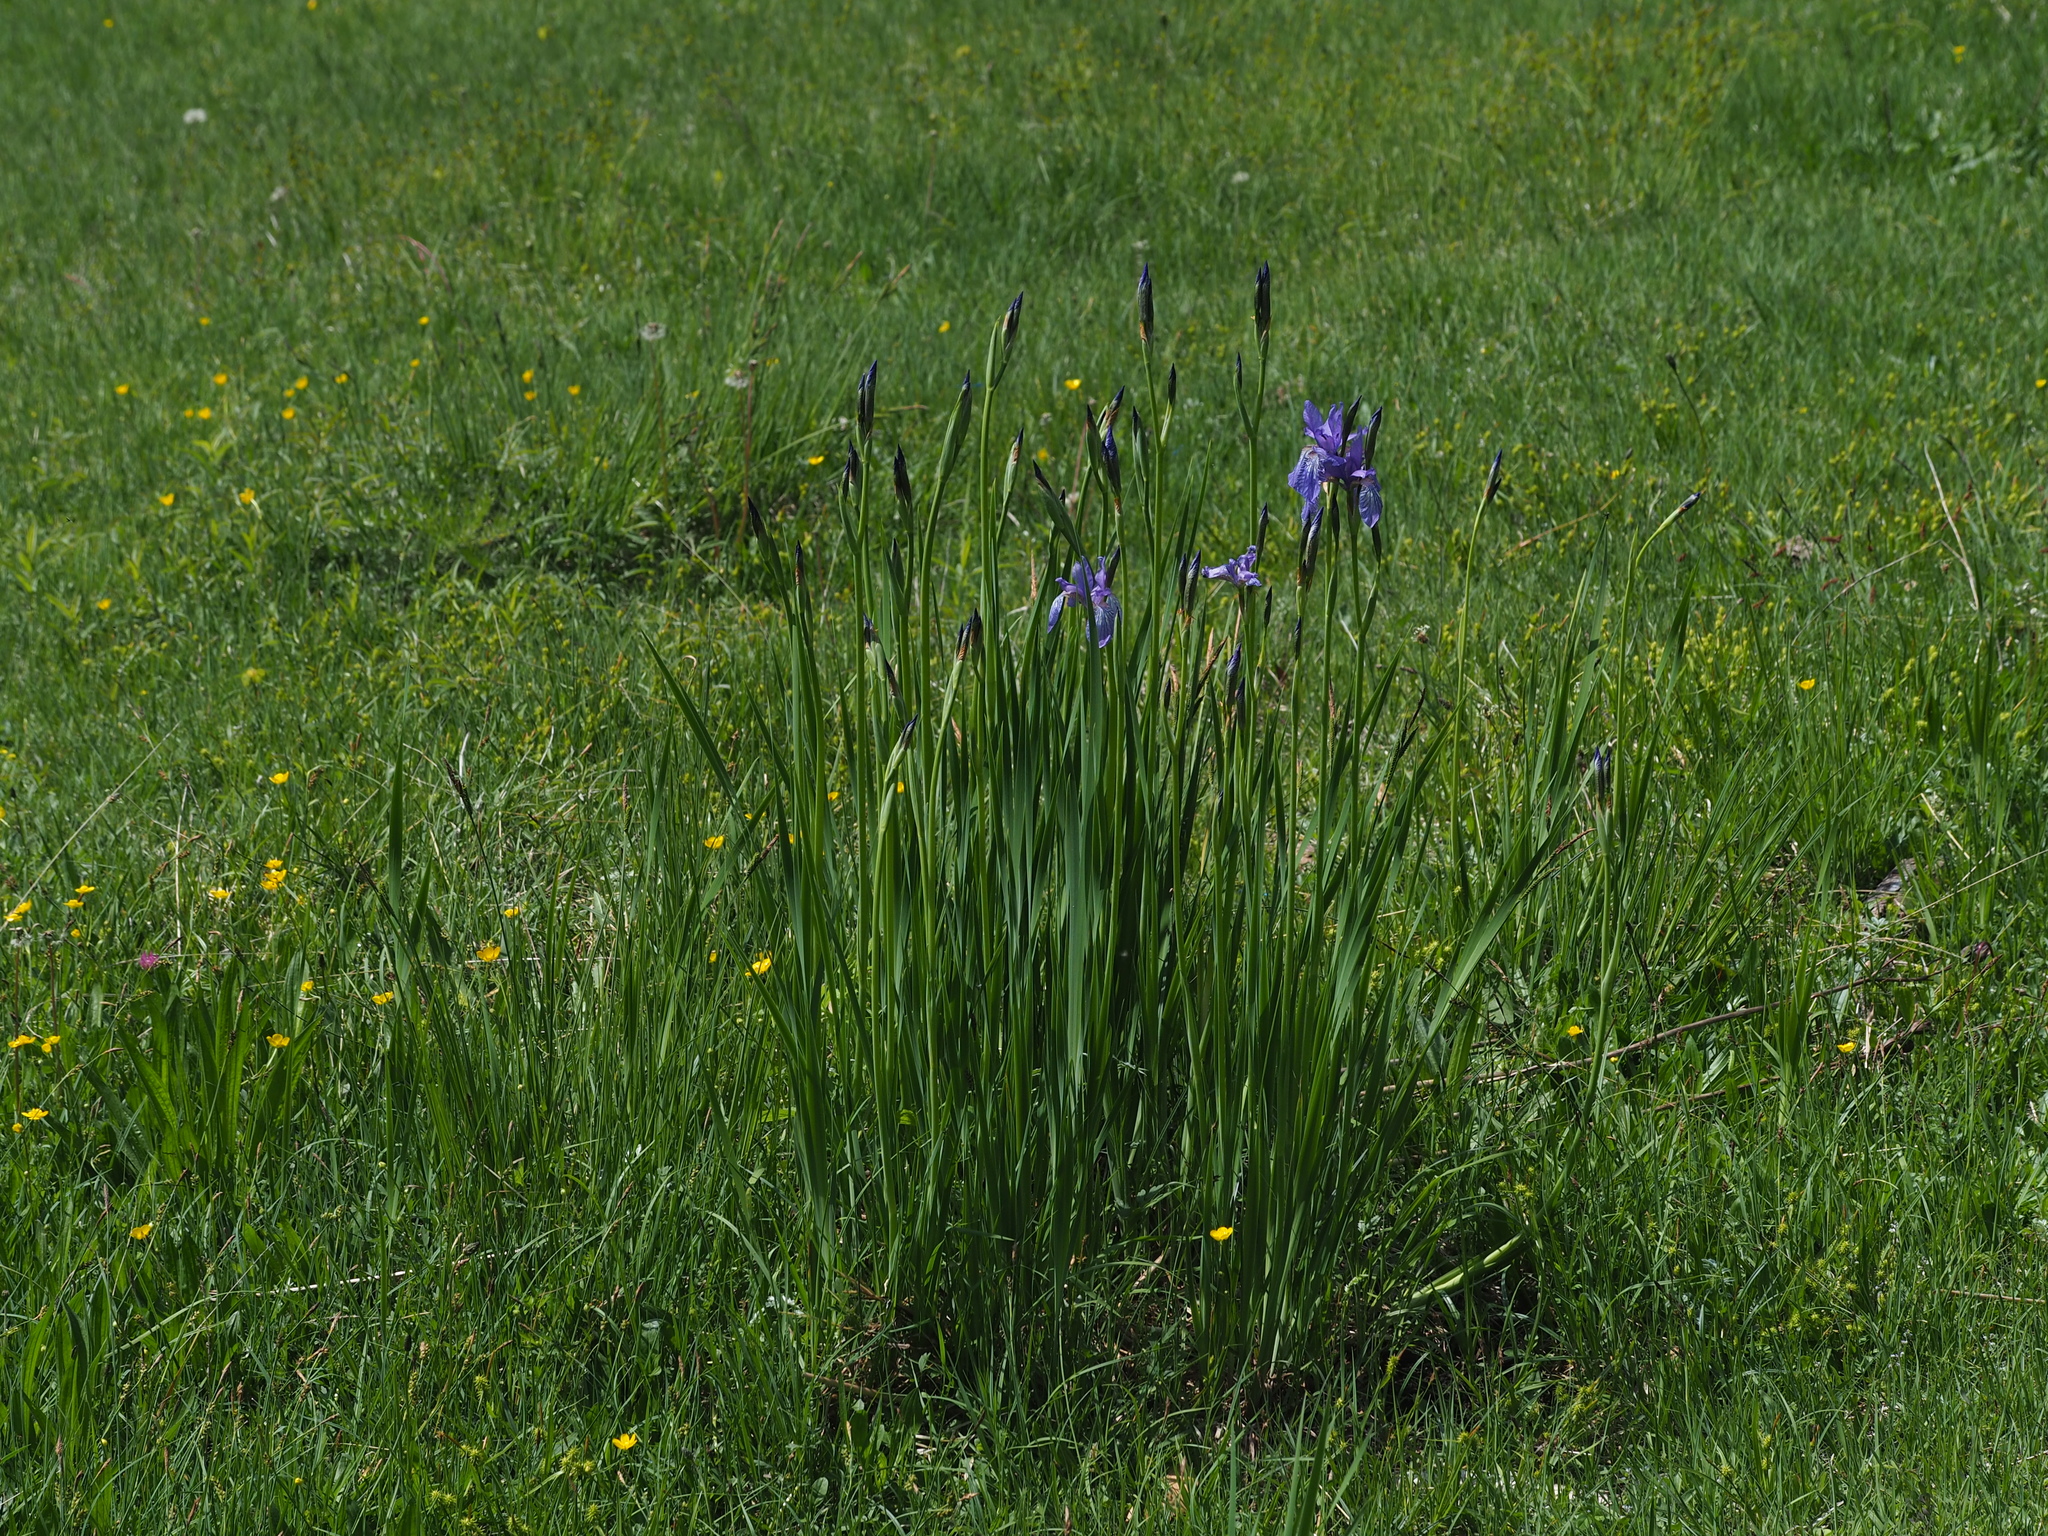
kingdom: Plantae
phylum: Tracheophyta
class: Liliopsida
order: Asparagales
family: Iridaceae
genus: Iris
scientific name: Iris sibirica
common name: Siberian iris
